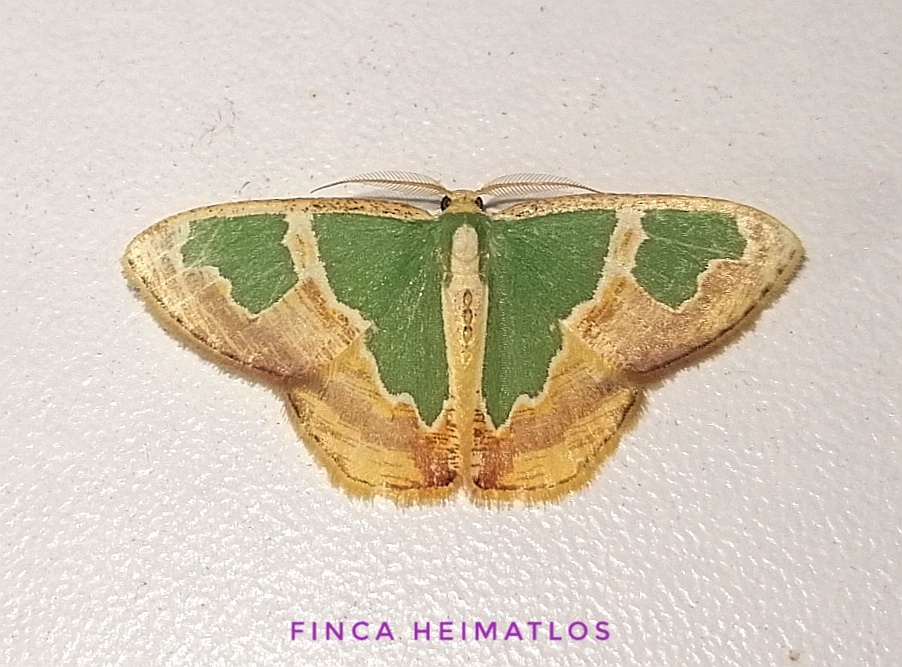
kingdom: Animalia
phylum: Arthropoda
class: Insecta
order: Lepidoptera
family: Geometridae
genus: Oospila
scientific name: Oospila venezuelata
